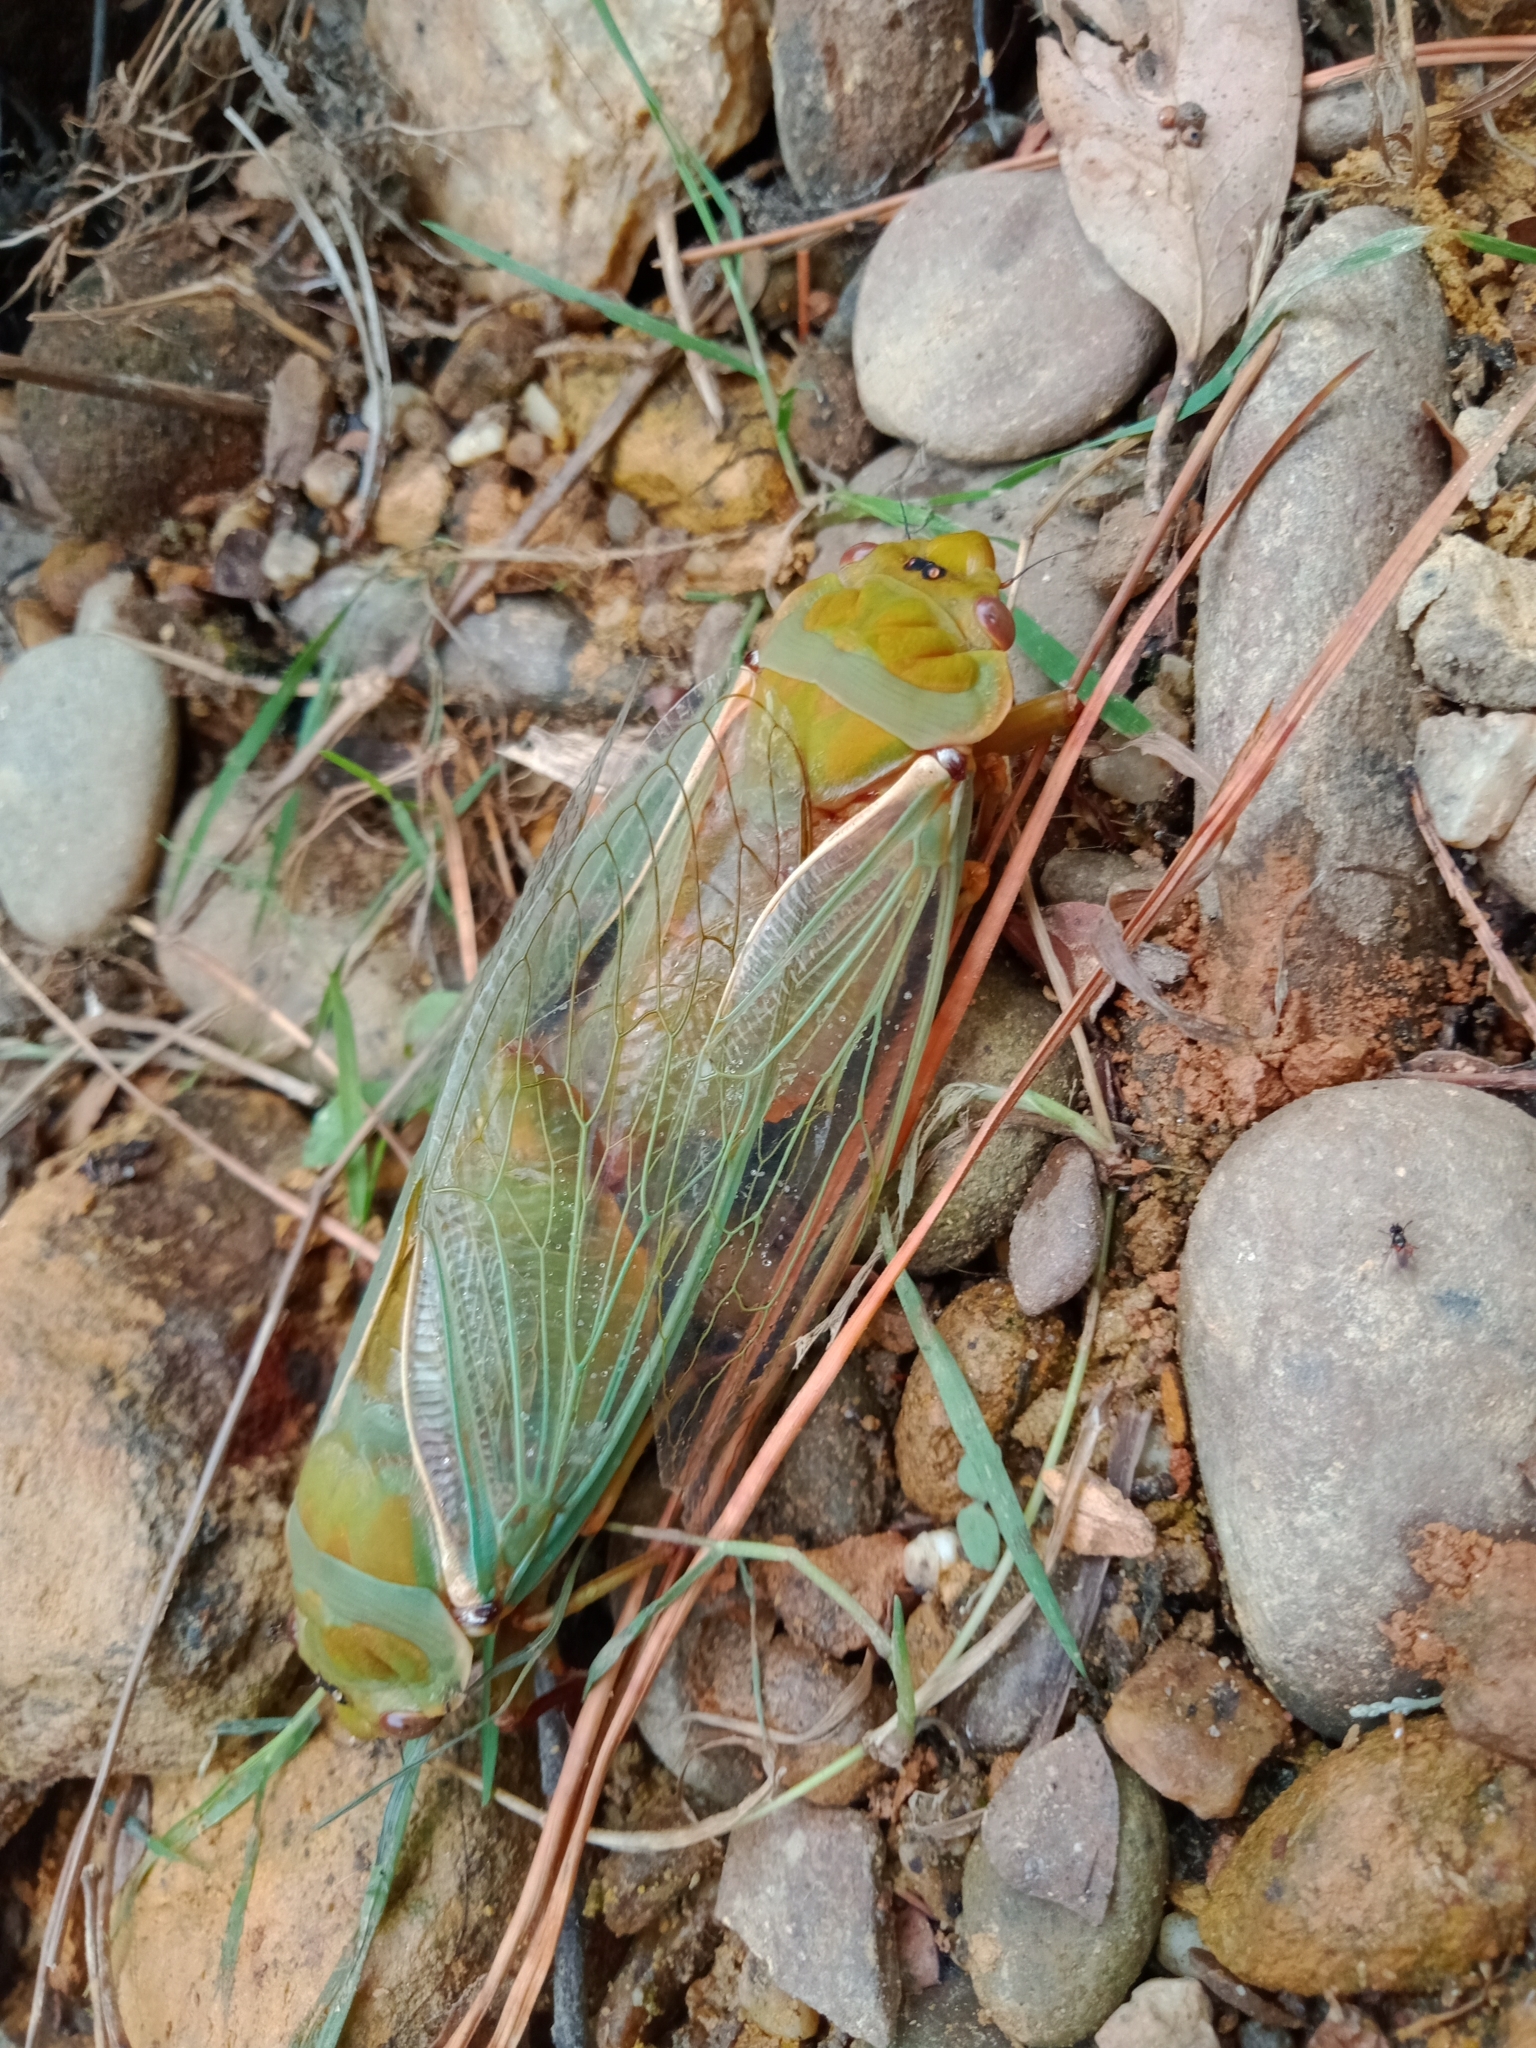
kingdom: Animalia
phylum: Arthropoda
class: Insecta
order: Hemiptera
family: Cicadidae
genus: Cyclochila
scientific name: Cyclochila australasiae
